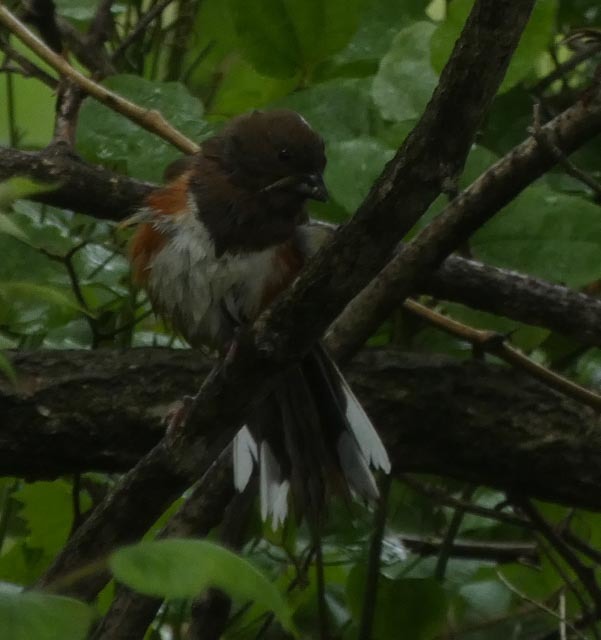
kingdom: Animalia
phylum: Chordata
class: Aves
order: Passeriformes
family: Passerellidae
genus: Pipilo
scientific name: Pipilo erythrophthalmus
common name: Eastern towhee
